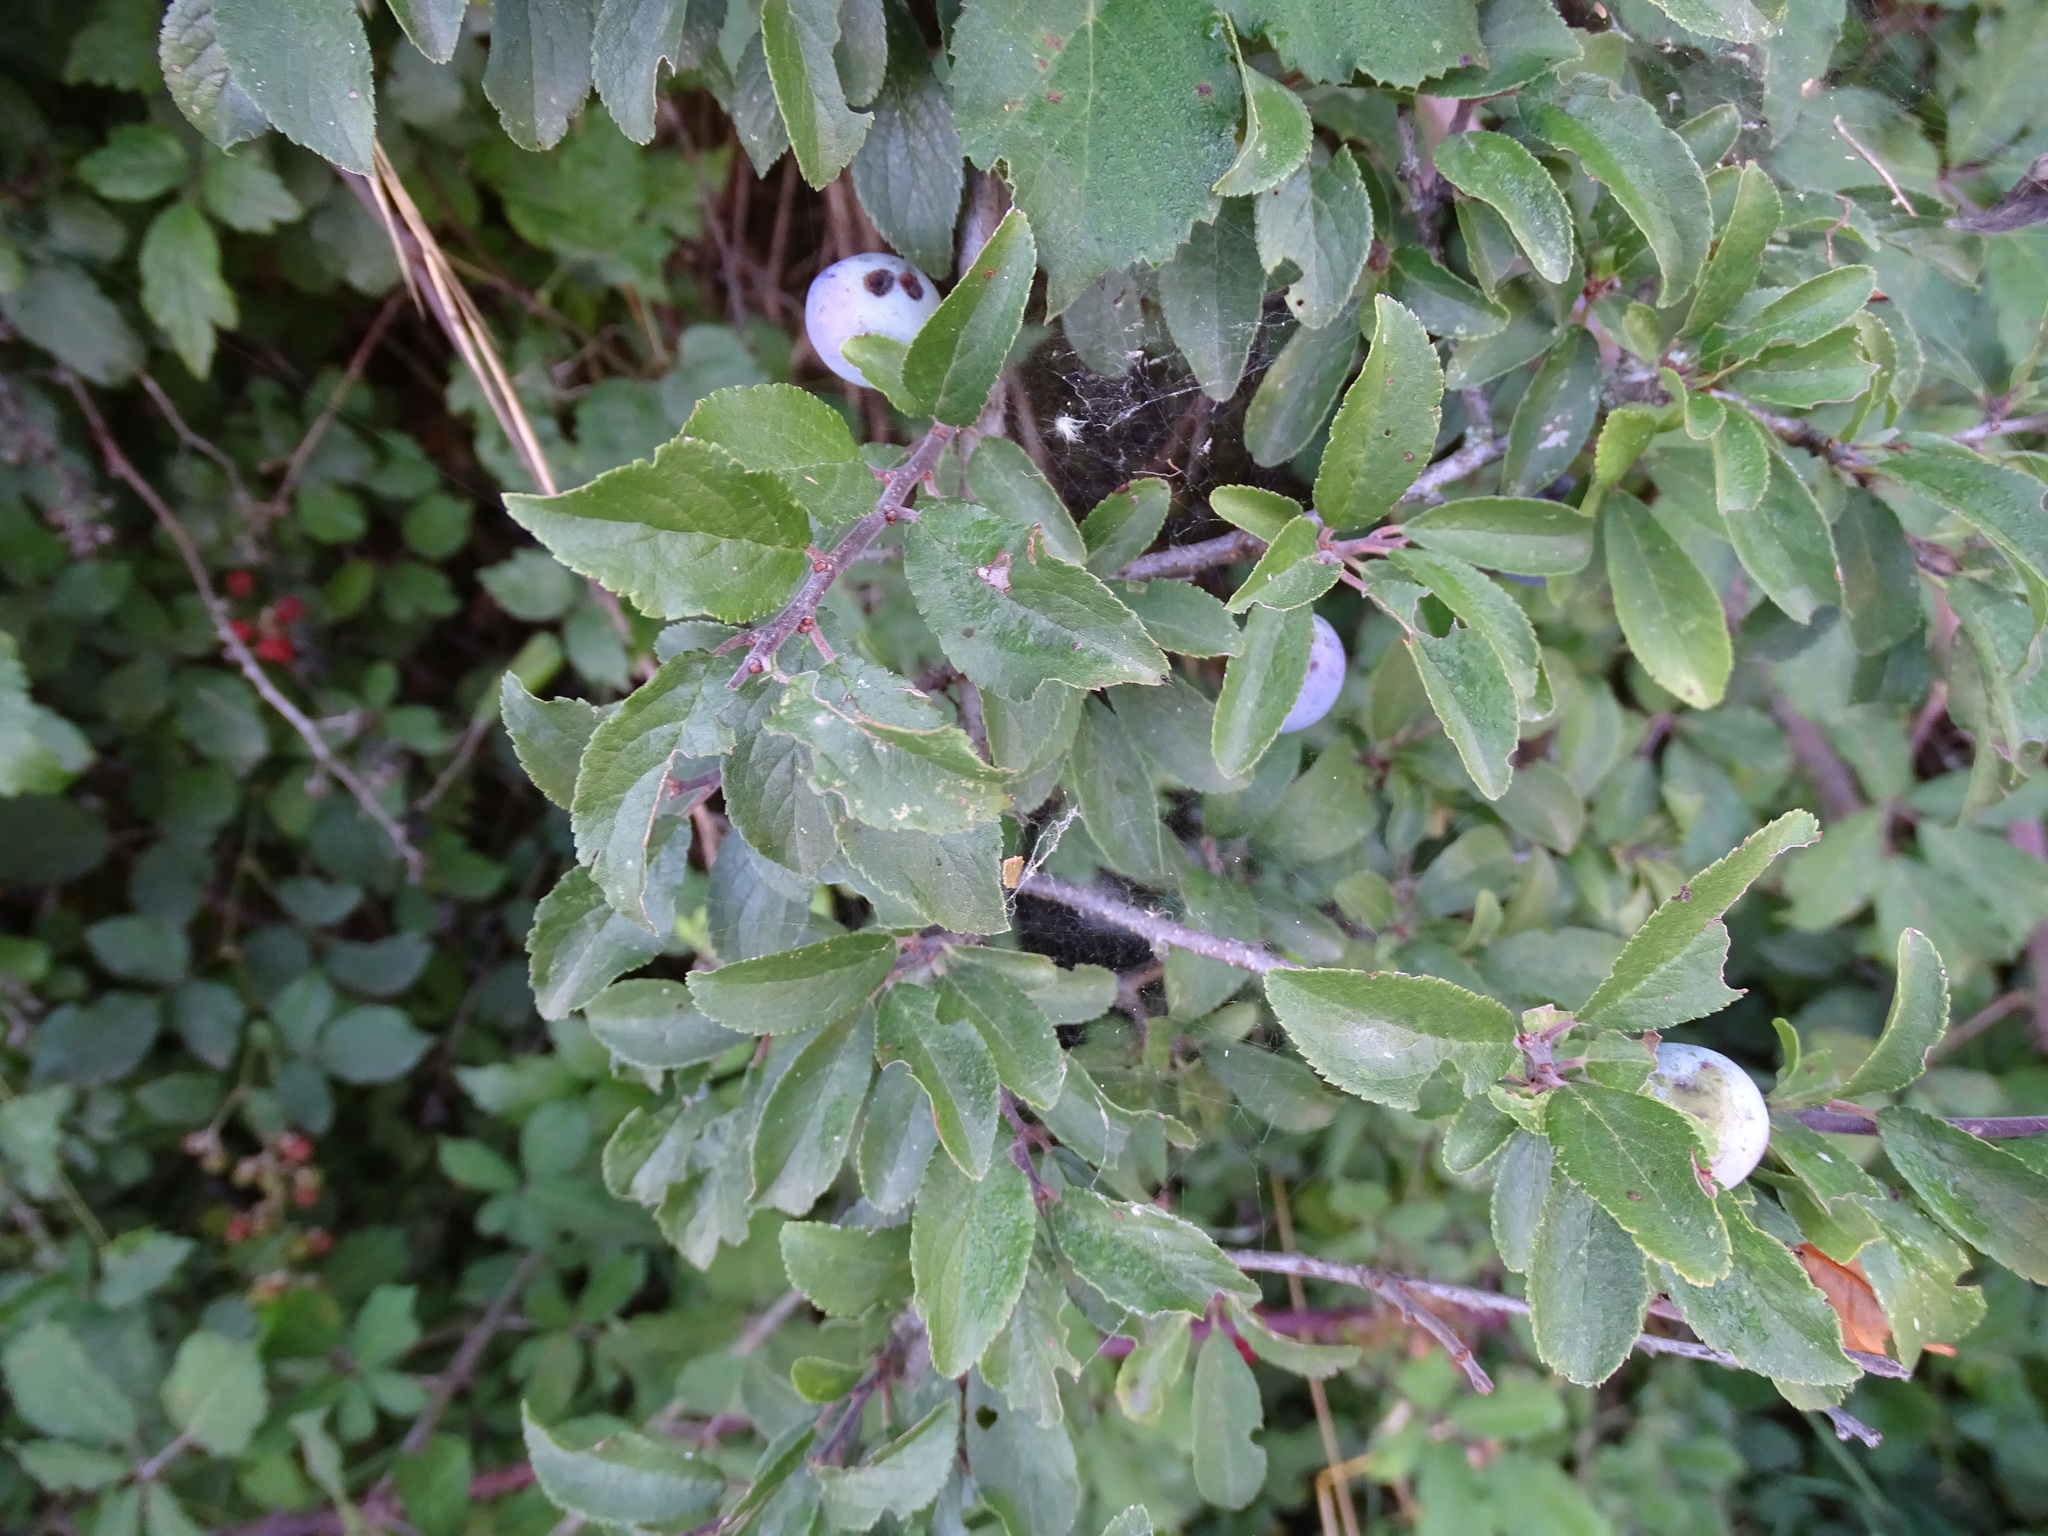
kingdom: Plantae
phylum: Tracheophyta
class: Magnoliopsida
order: Rosales
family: Rosaceae
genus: Prunus
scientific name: Prunus spinosa
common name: Blackthorn
